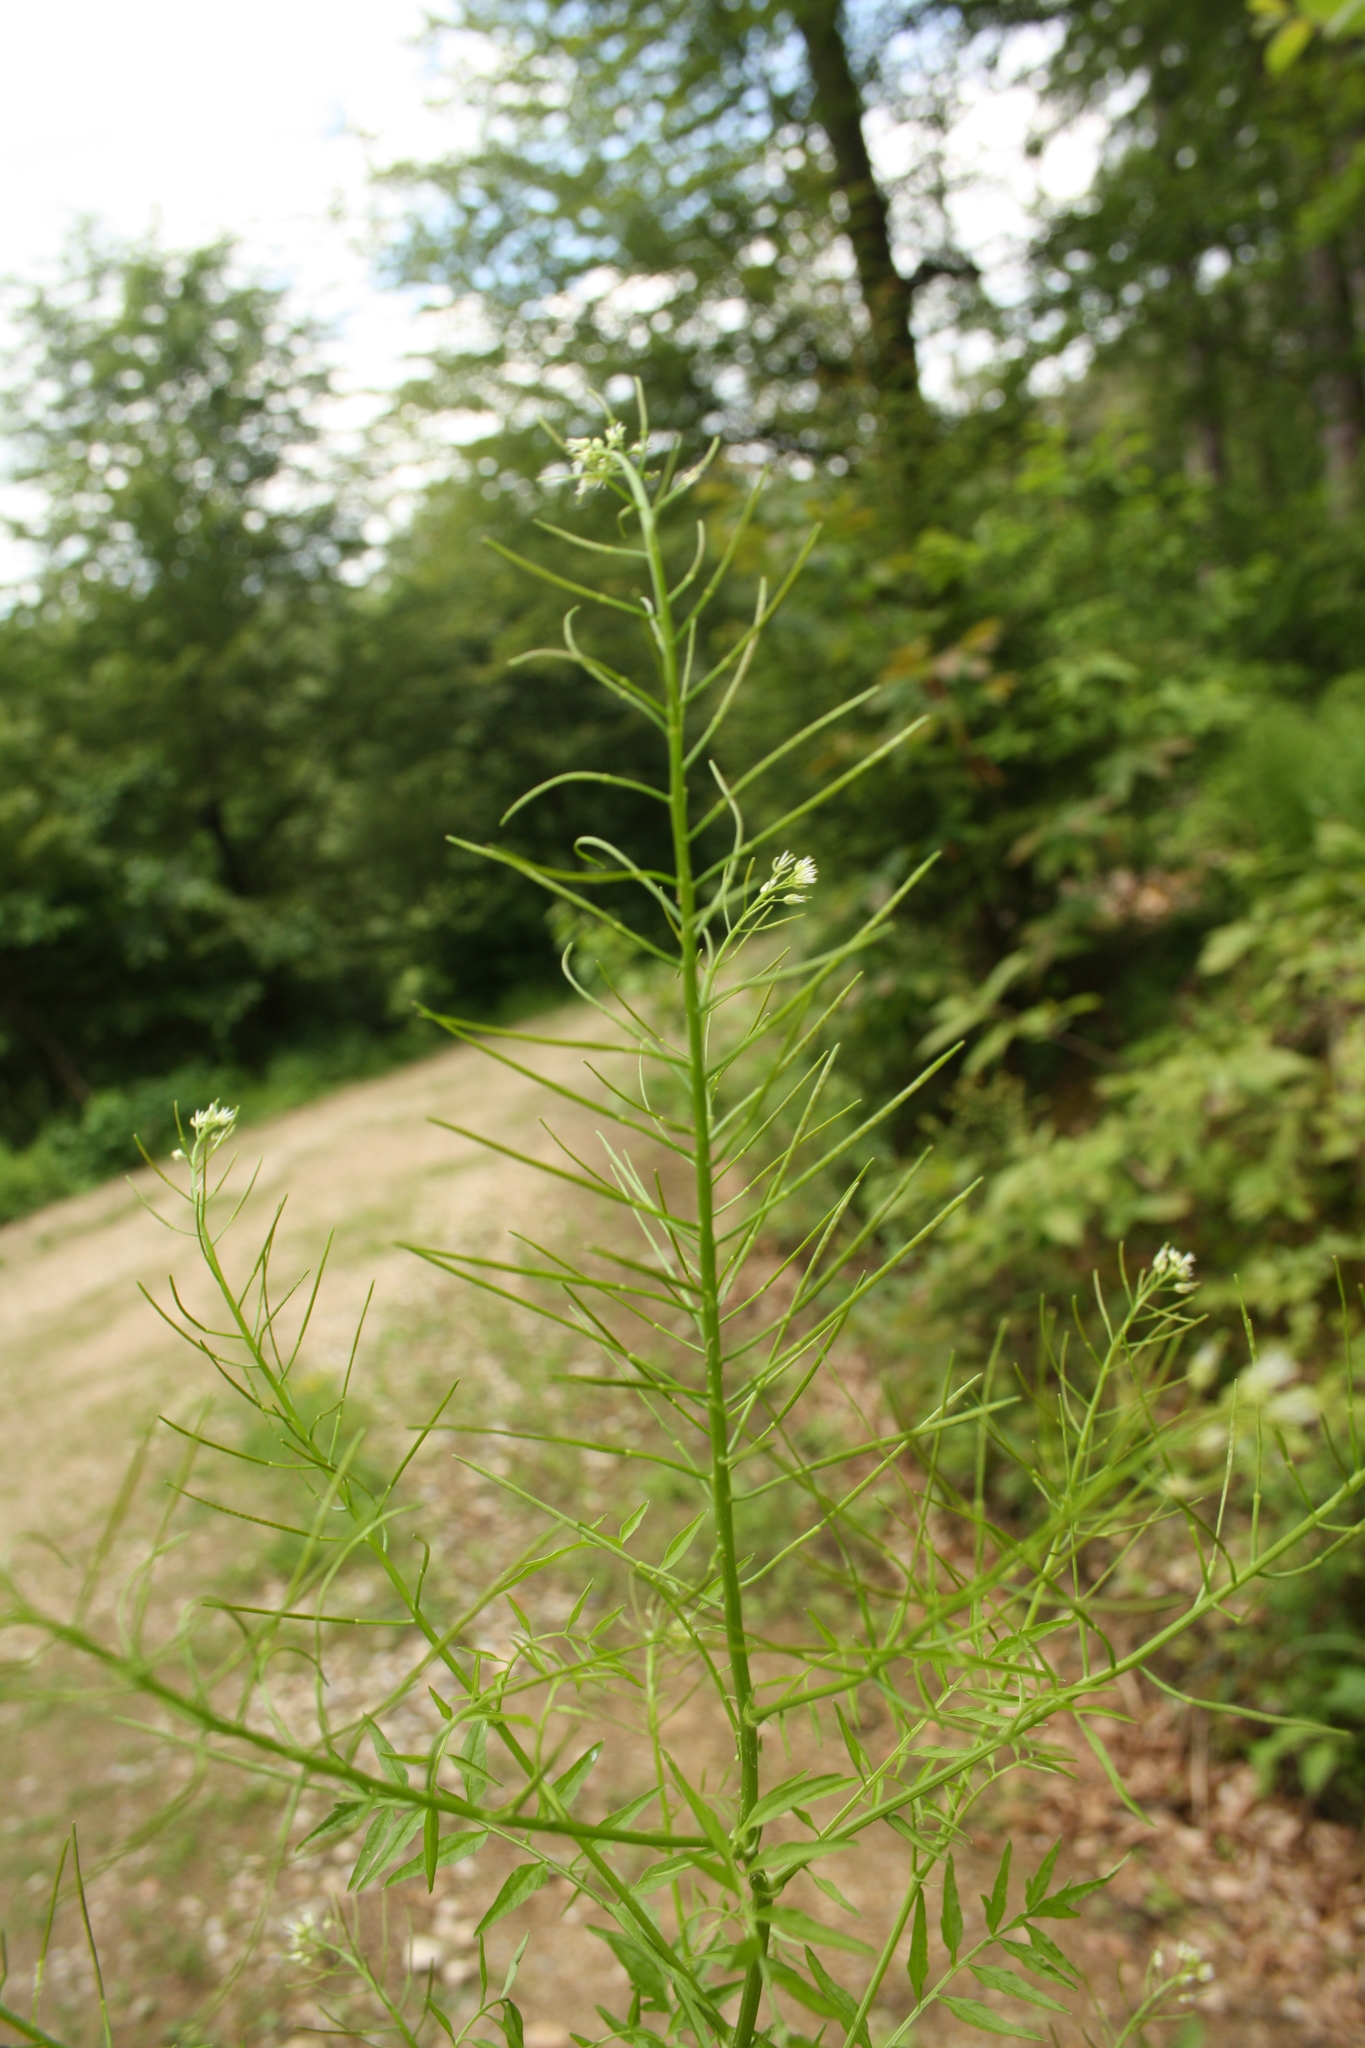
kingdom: Plantae
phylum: Tracheophyta
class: Magnoliopsida
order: Brassicales
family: Brassicaceae
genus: Cardamine
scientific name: Cardamine impatiens
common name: Narrow-leaved bitter-cress
